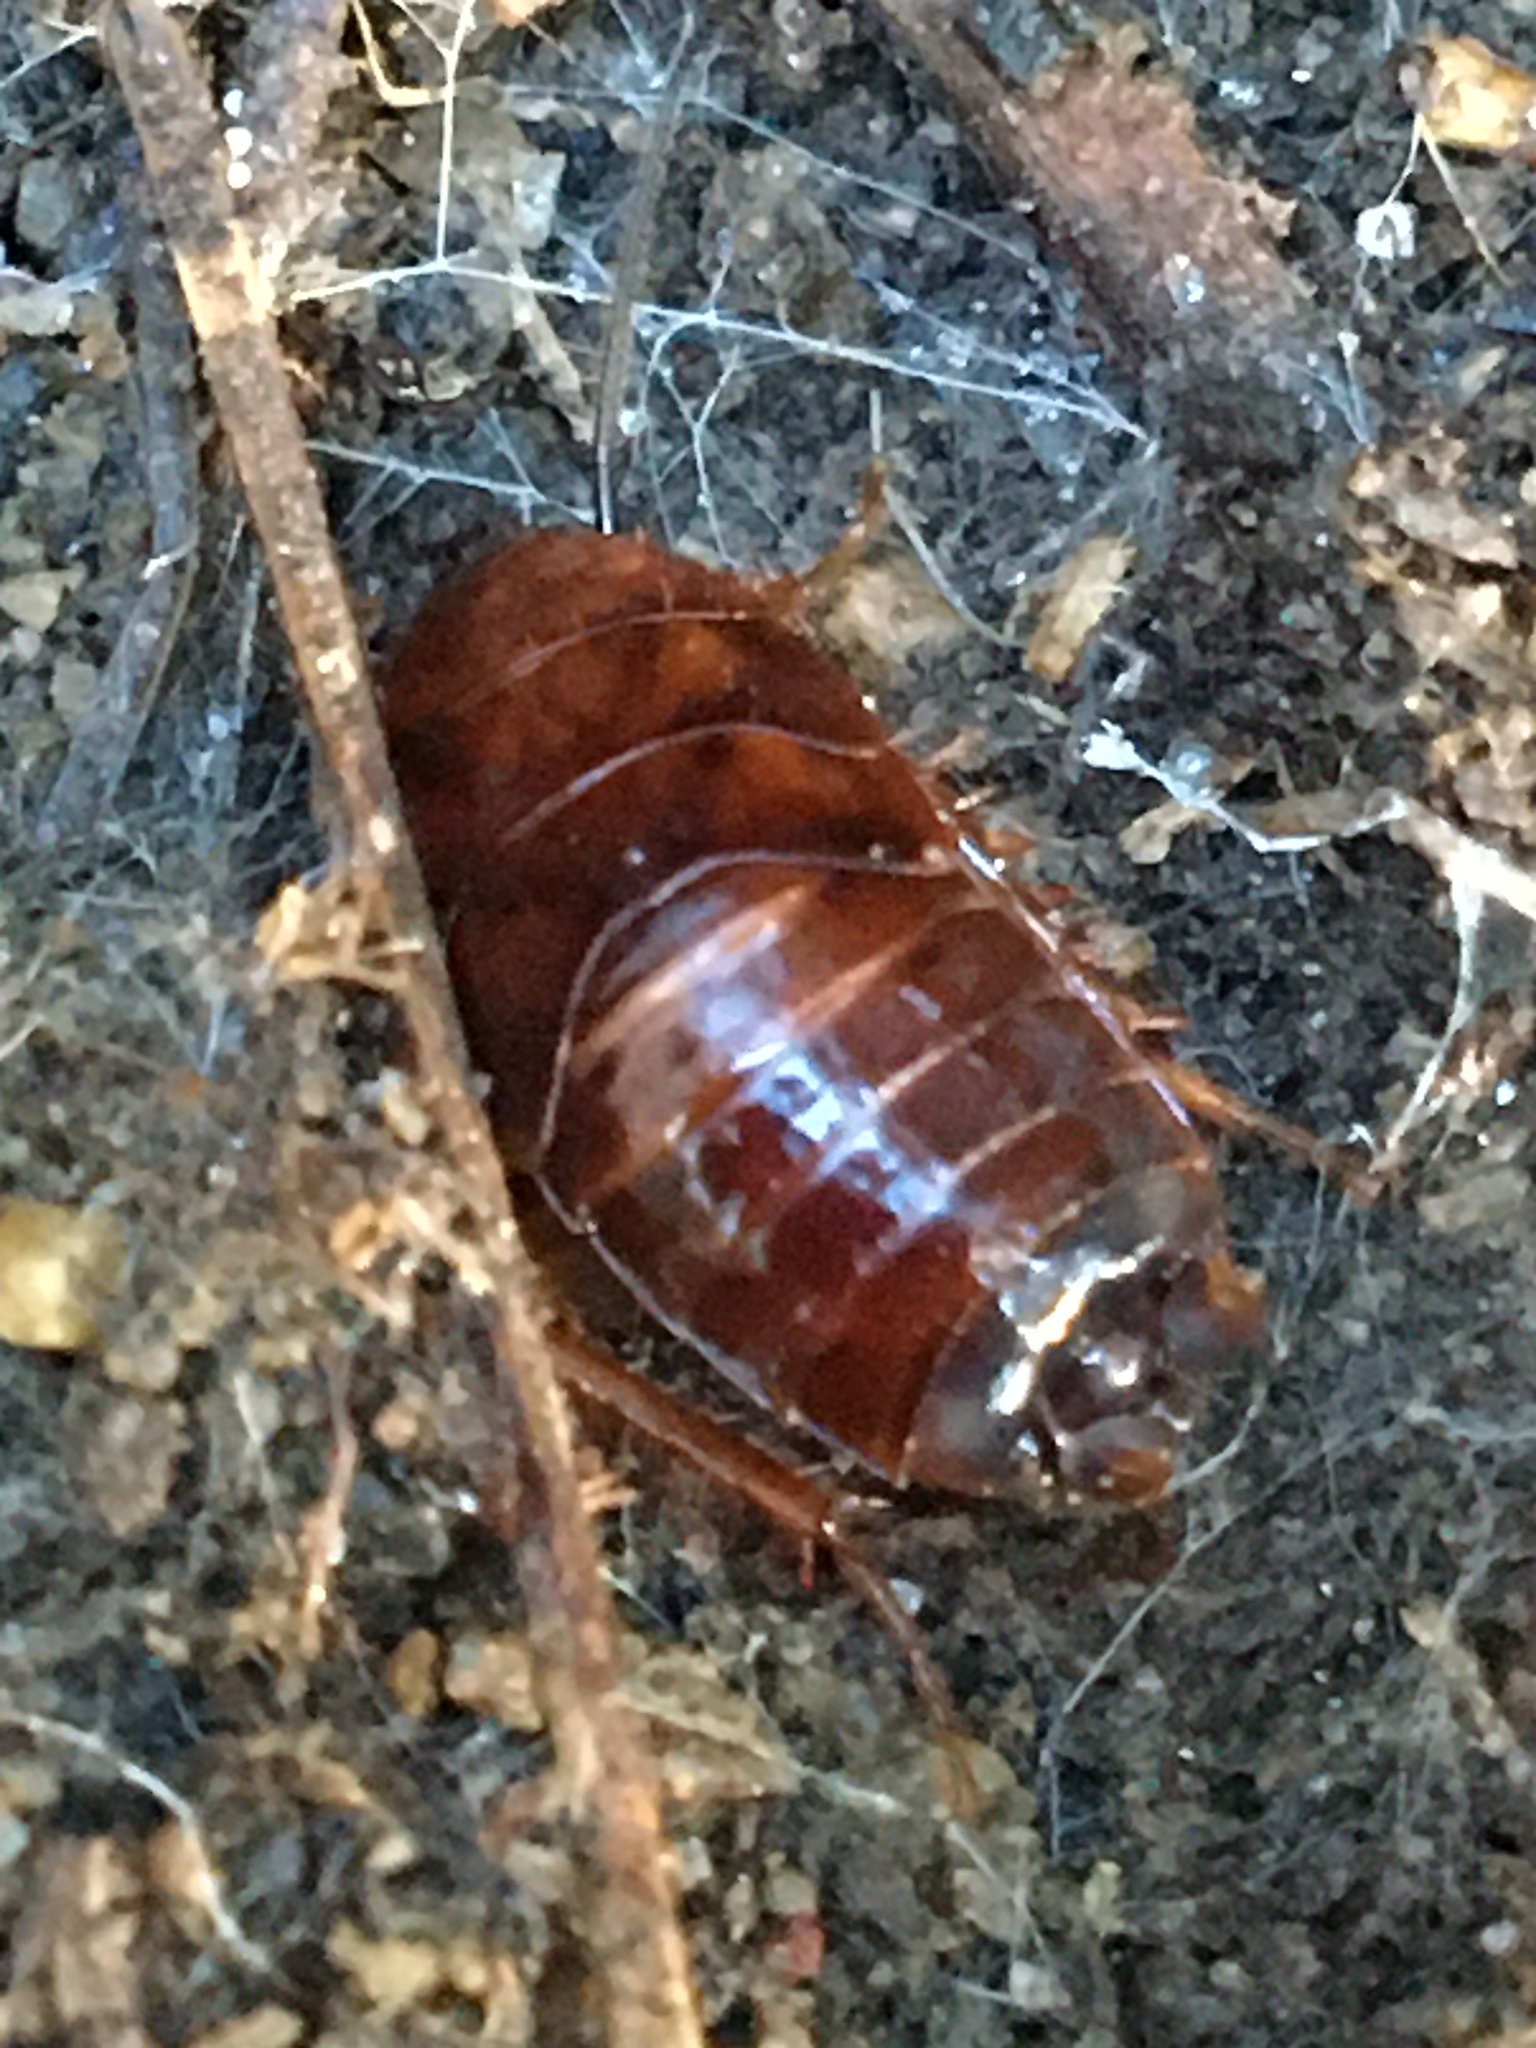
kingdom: Animalia
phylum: Arthropoda
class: Insecta
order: Blattodea
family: Ectobiidae
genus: Parcoblatta
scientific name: Parcoblatta
